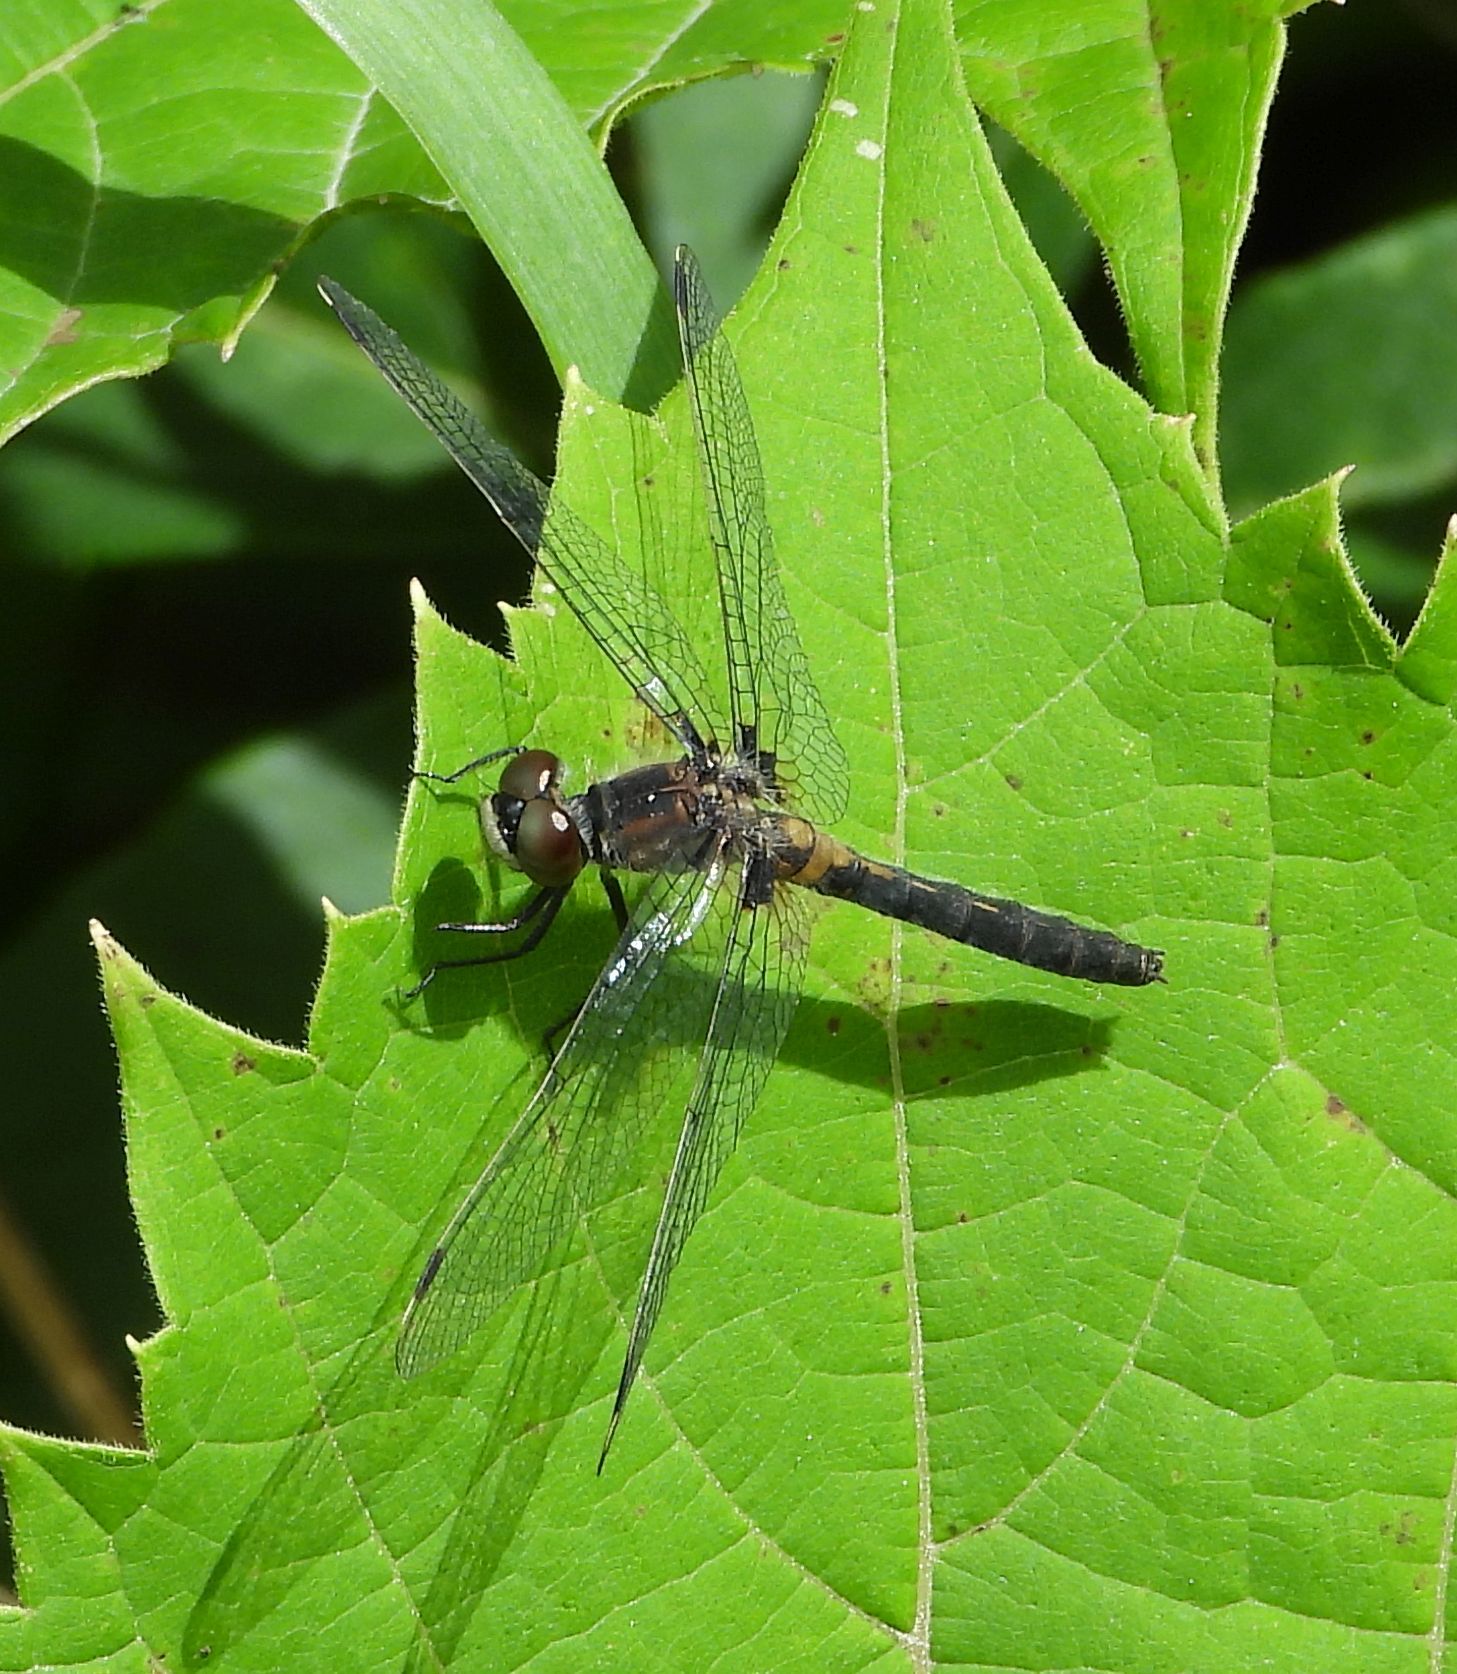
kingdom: Animalia
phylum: Arthropoda
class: Insecta
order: Odonata
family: Libellulidae
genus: Leucorrhinia
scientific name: Leucorrhinia frigida
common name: Frosted whiteface
